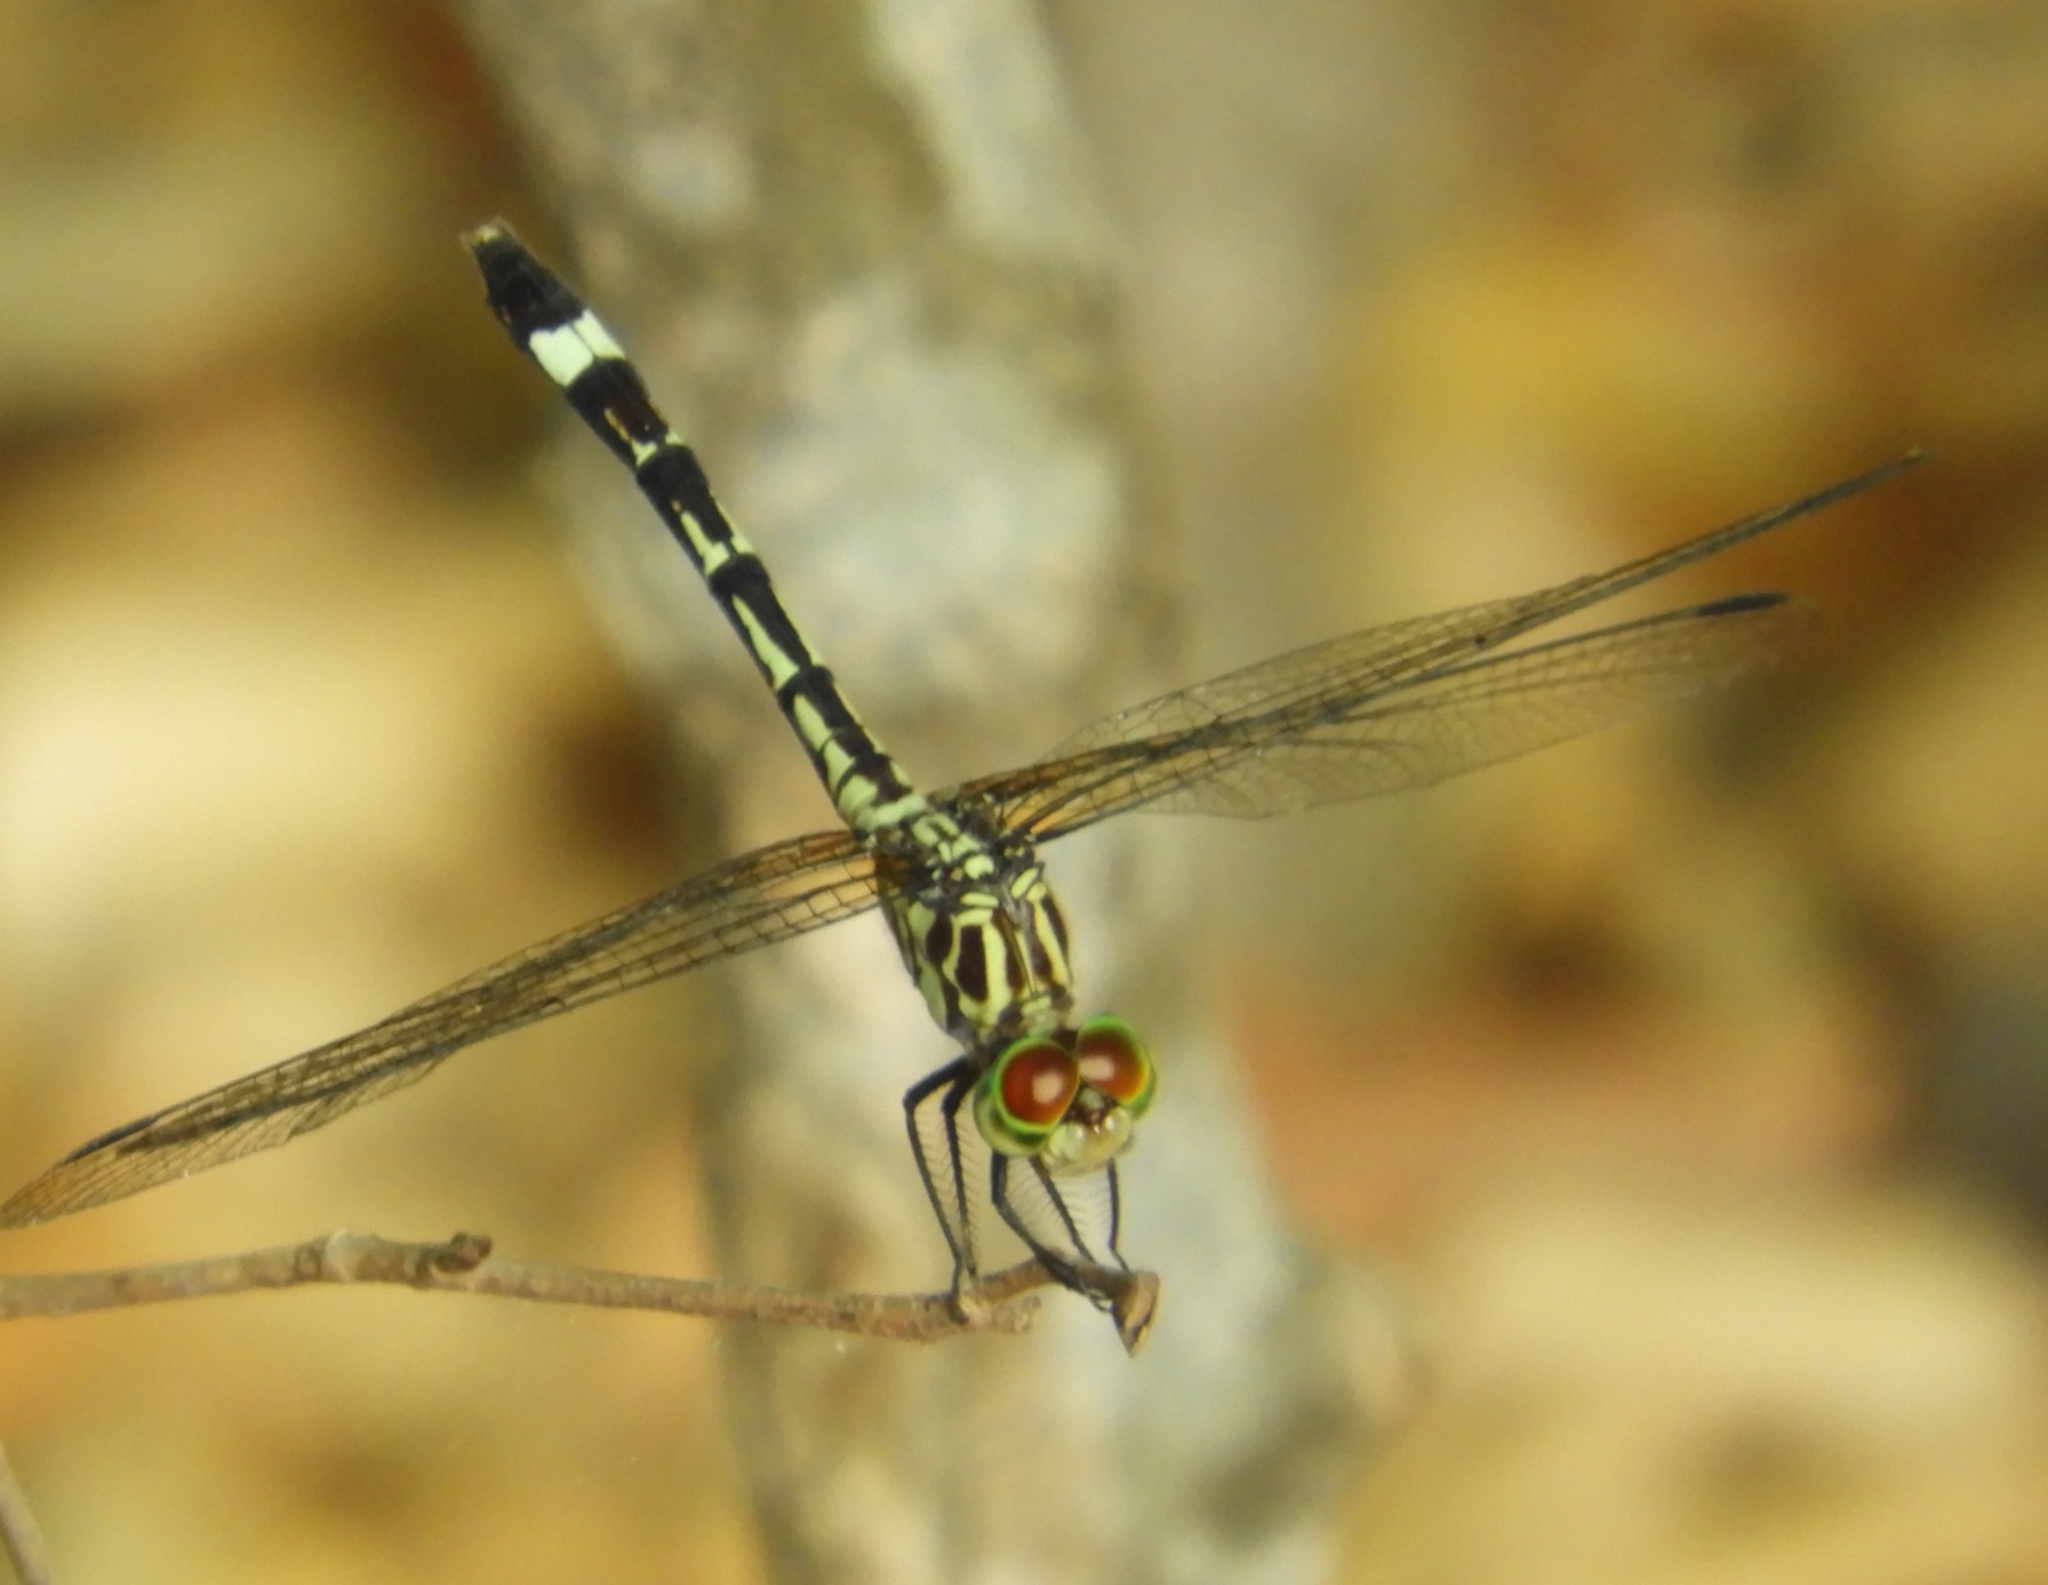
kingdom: Animalia
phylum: Arthropoda
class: Insecta
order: Odonata
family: Libellulidae
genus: Micrathyria
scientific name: Micrathyria didyma
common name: Three-striped dasher
